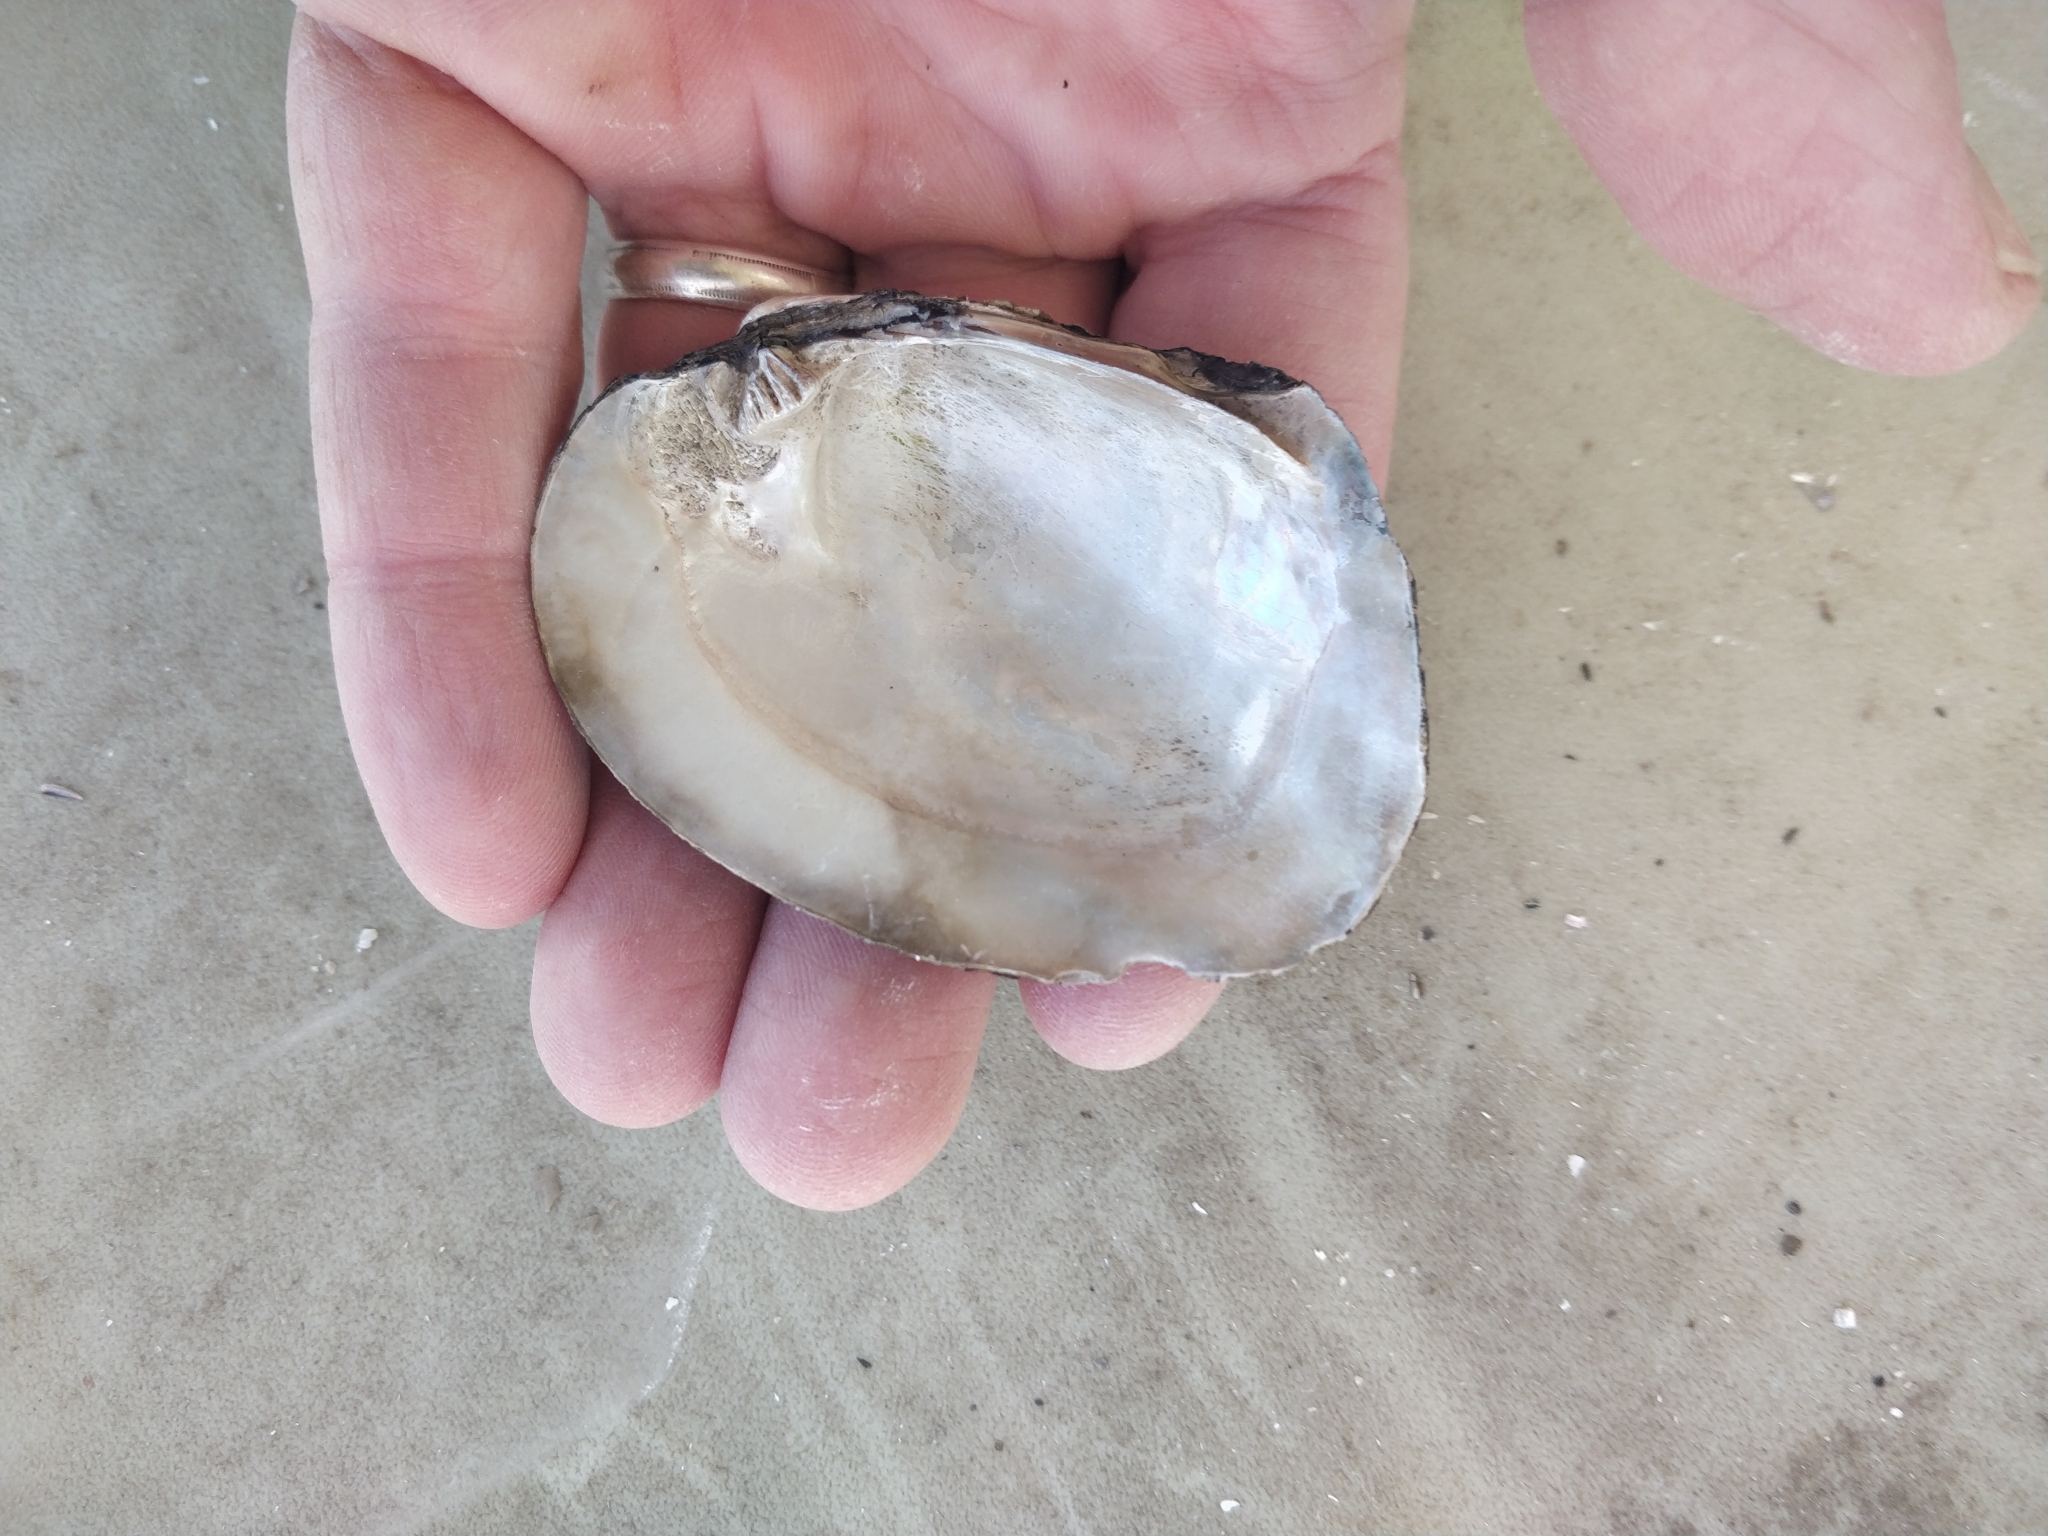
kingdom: Animalia
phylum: Mollusca
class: Bivalvia
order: Unionida
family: Unionidae
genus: Amblema
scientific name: Amblema plicata
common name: Threeridge
